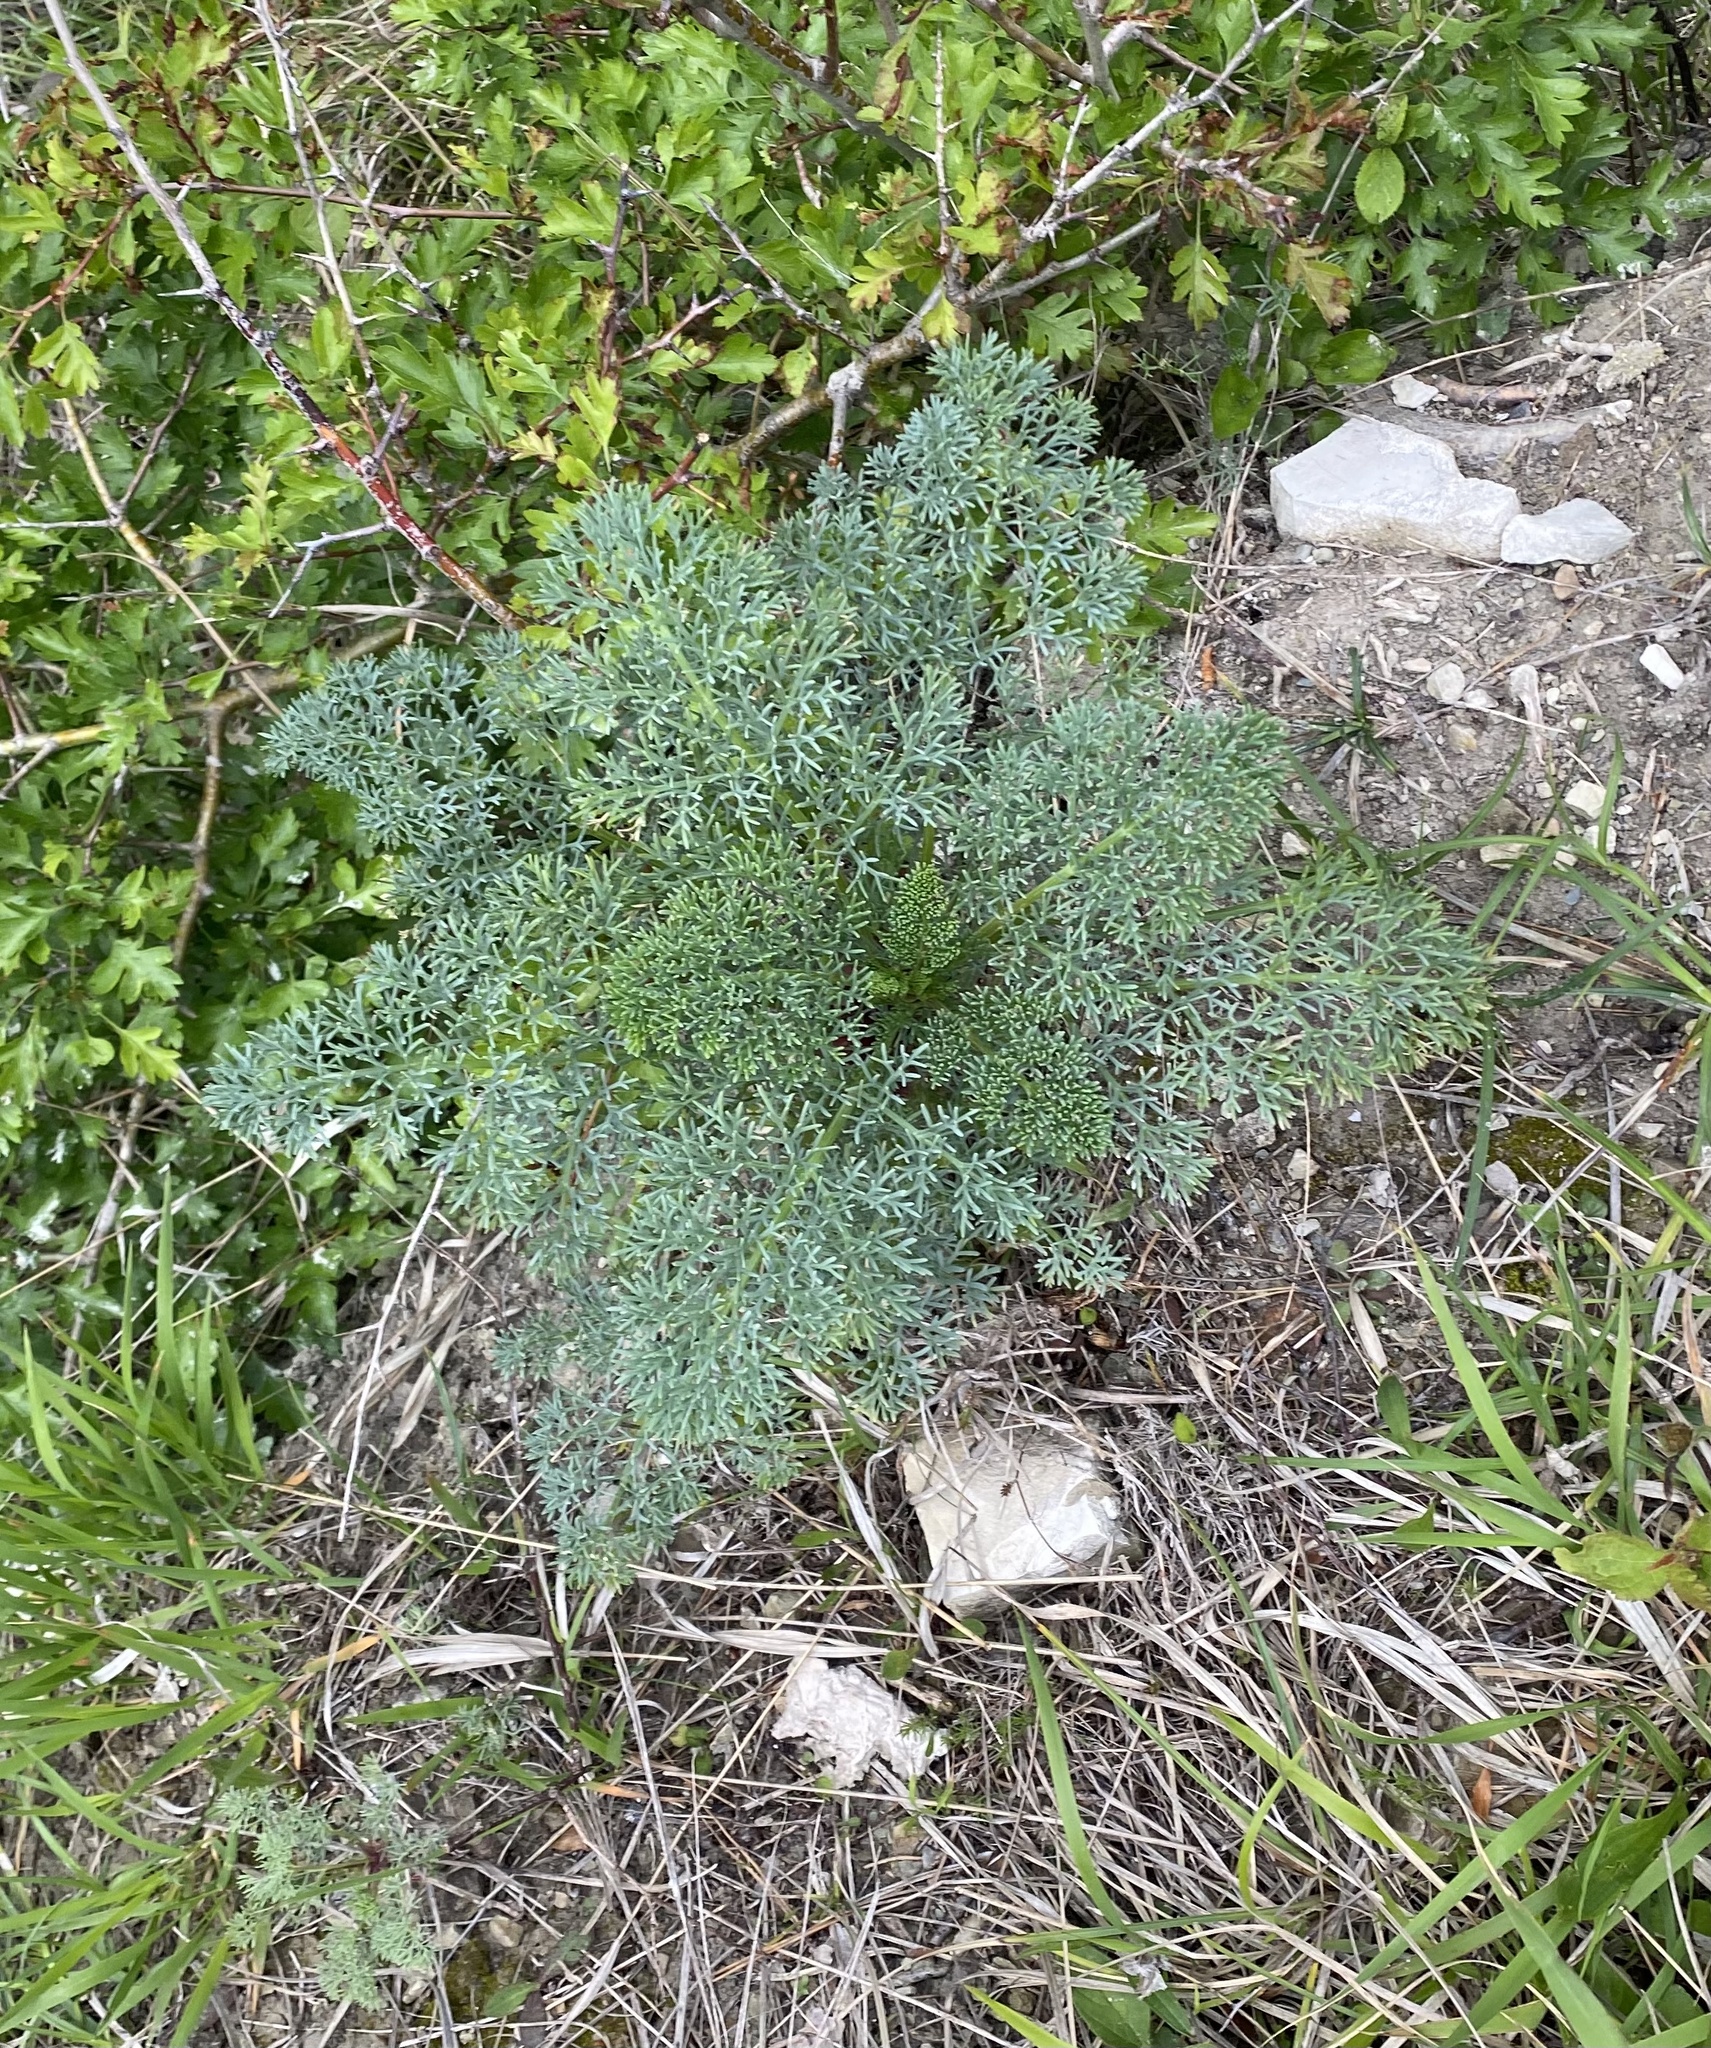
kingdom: Plantae
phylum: Tracheophyta
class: Magnoliopsida
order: Apiales
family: Apiaceae
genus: Seseli
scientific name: Seseli ponticum
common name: Pontic seseli
